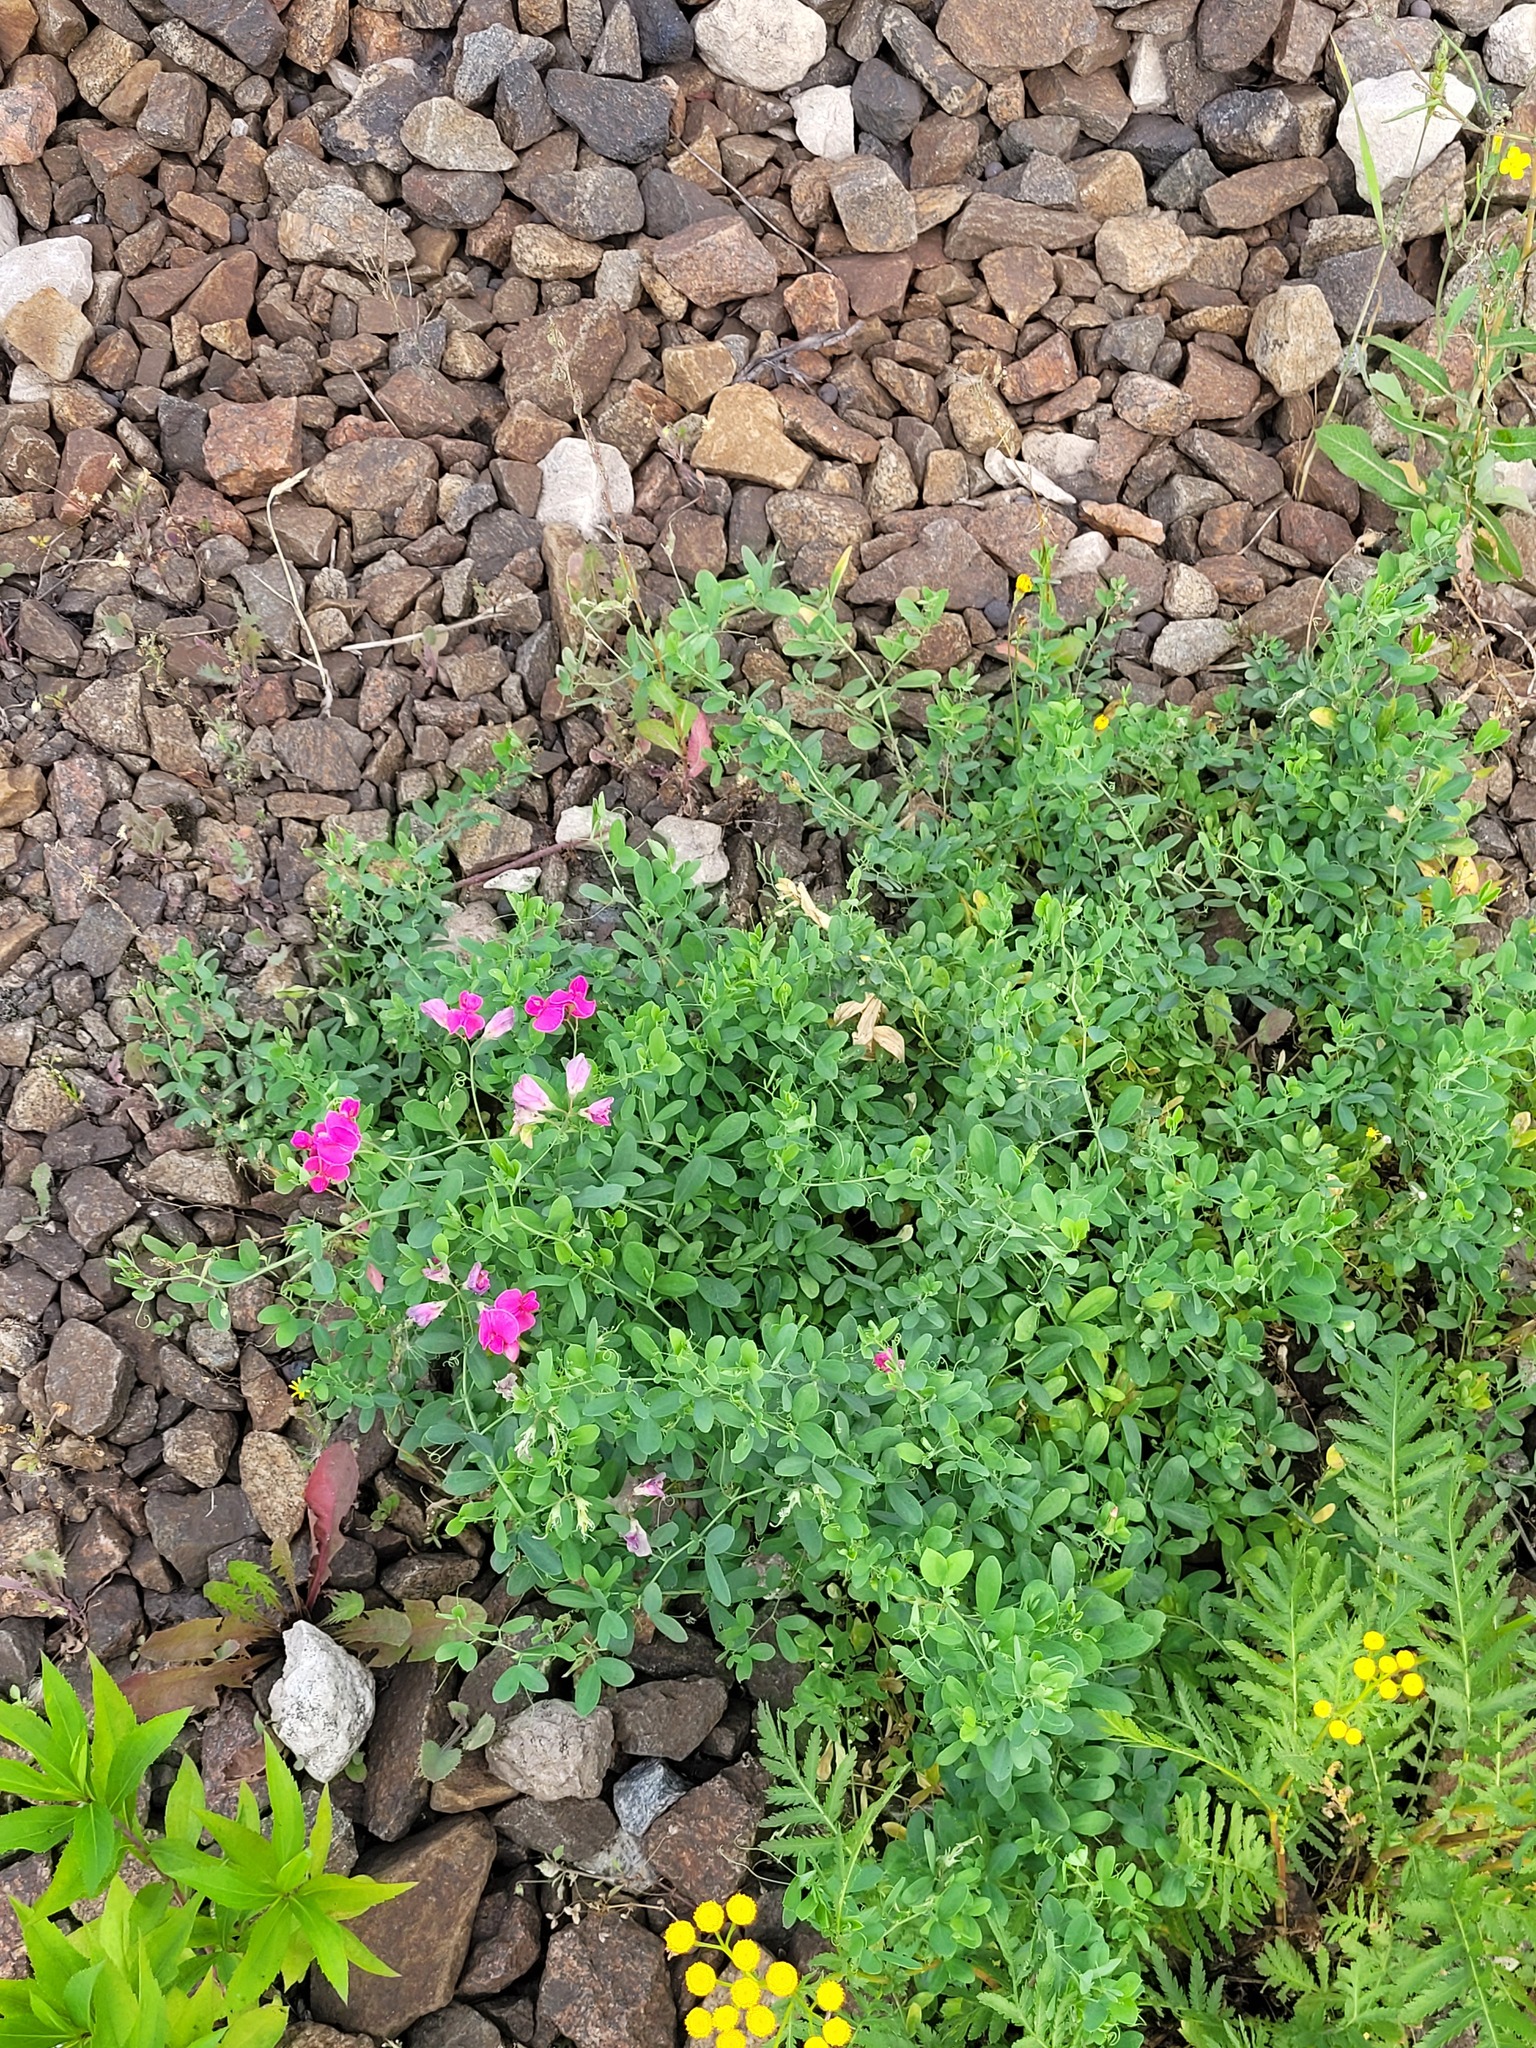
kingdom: Plantae
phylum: Tracheophyta
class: Magnoliopsida
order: Fabales
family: Fabaceae
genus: Lathyrus
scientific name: Lathyrus tuberosus
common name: Tuberous pea
